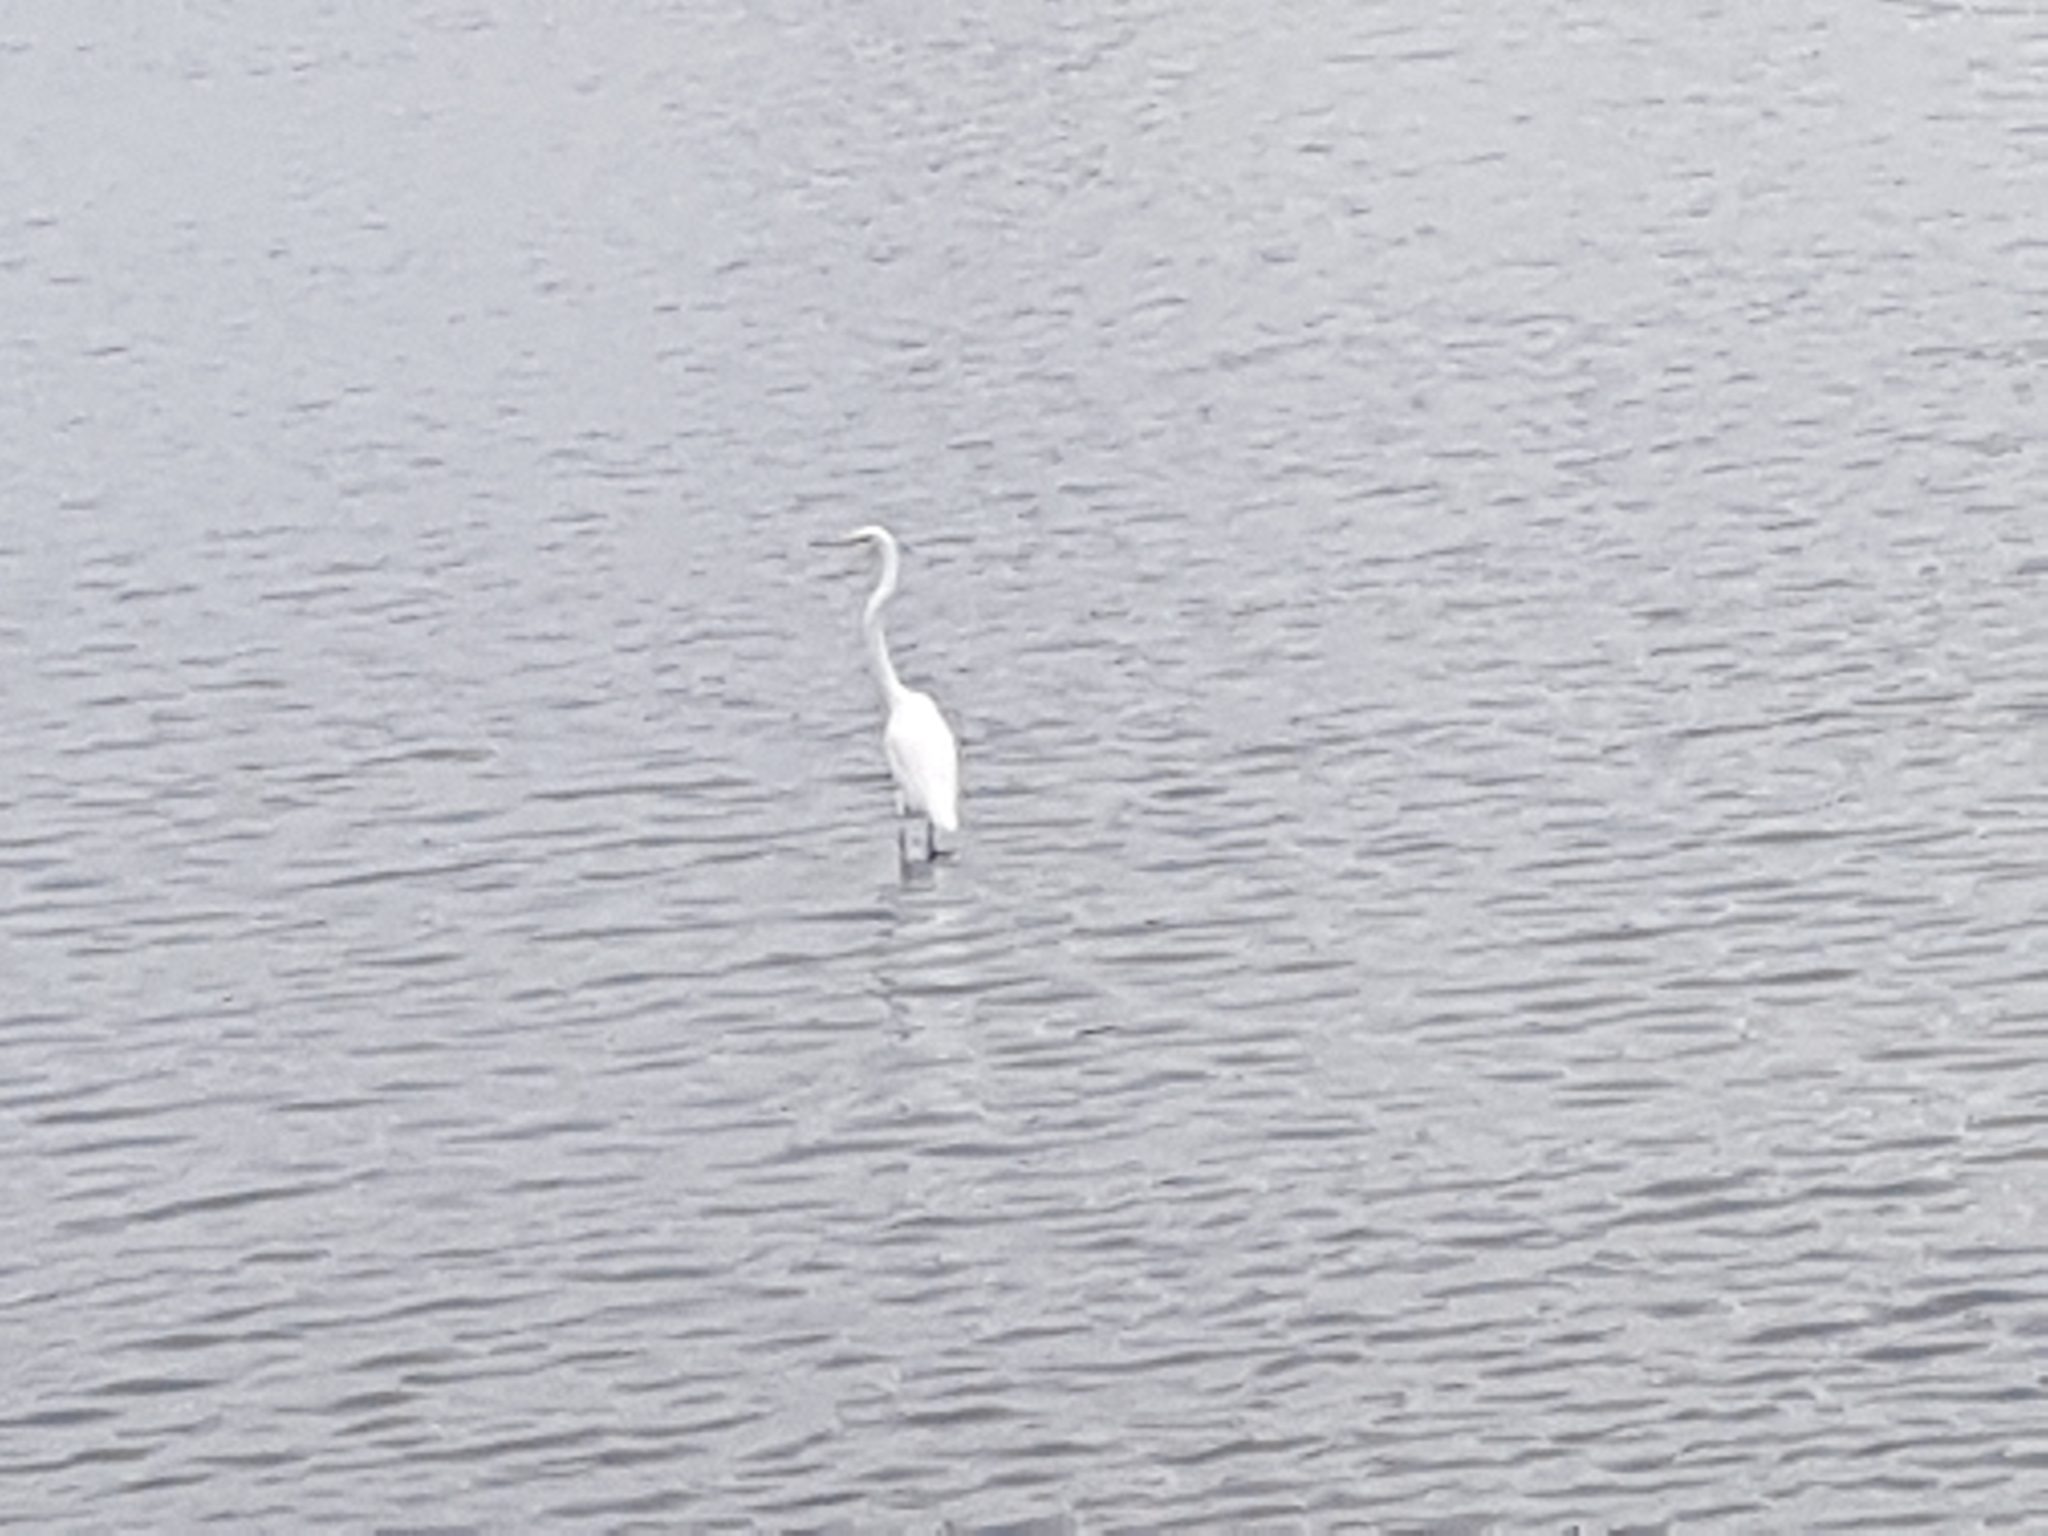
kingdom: Animalia
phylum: Chordata
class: Aves
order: Pelecaniformes
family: Ardeidae
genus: Ardea
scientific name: Ardea alba
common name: Great egret
